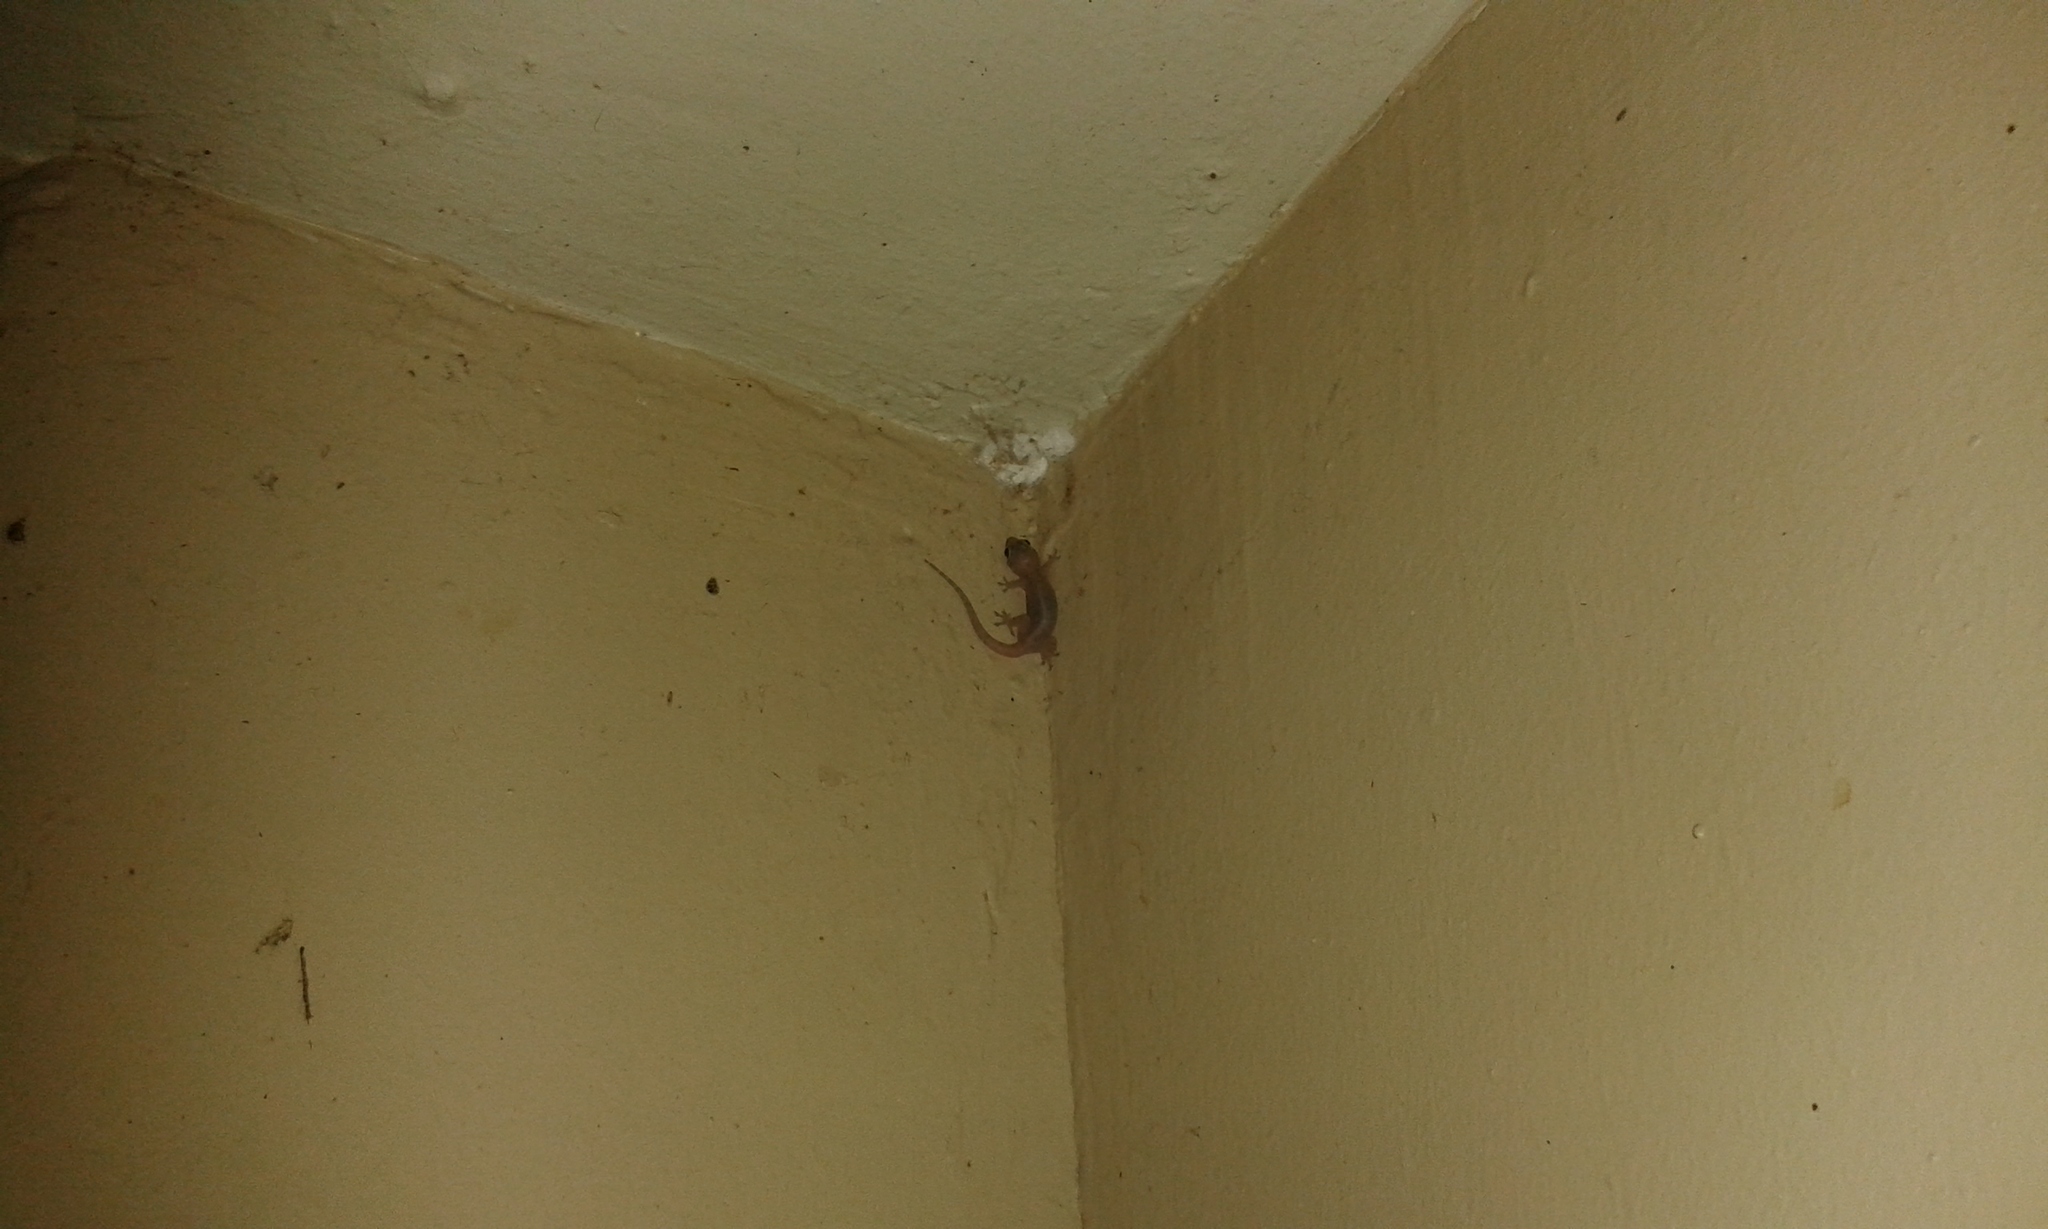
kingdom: Animalia
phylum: Chordata
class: Squamata
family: Gekkonidae
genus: Hemidactylus
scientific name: Hemidactylus frenatus
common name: Common house gecko
